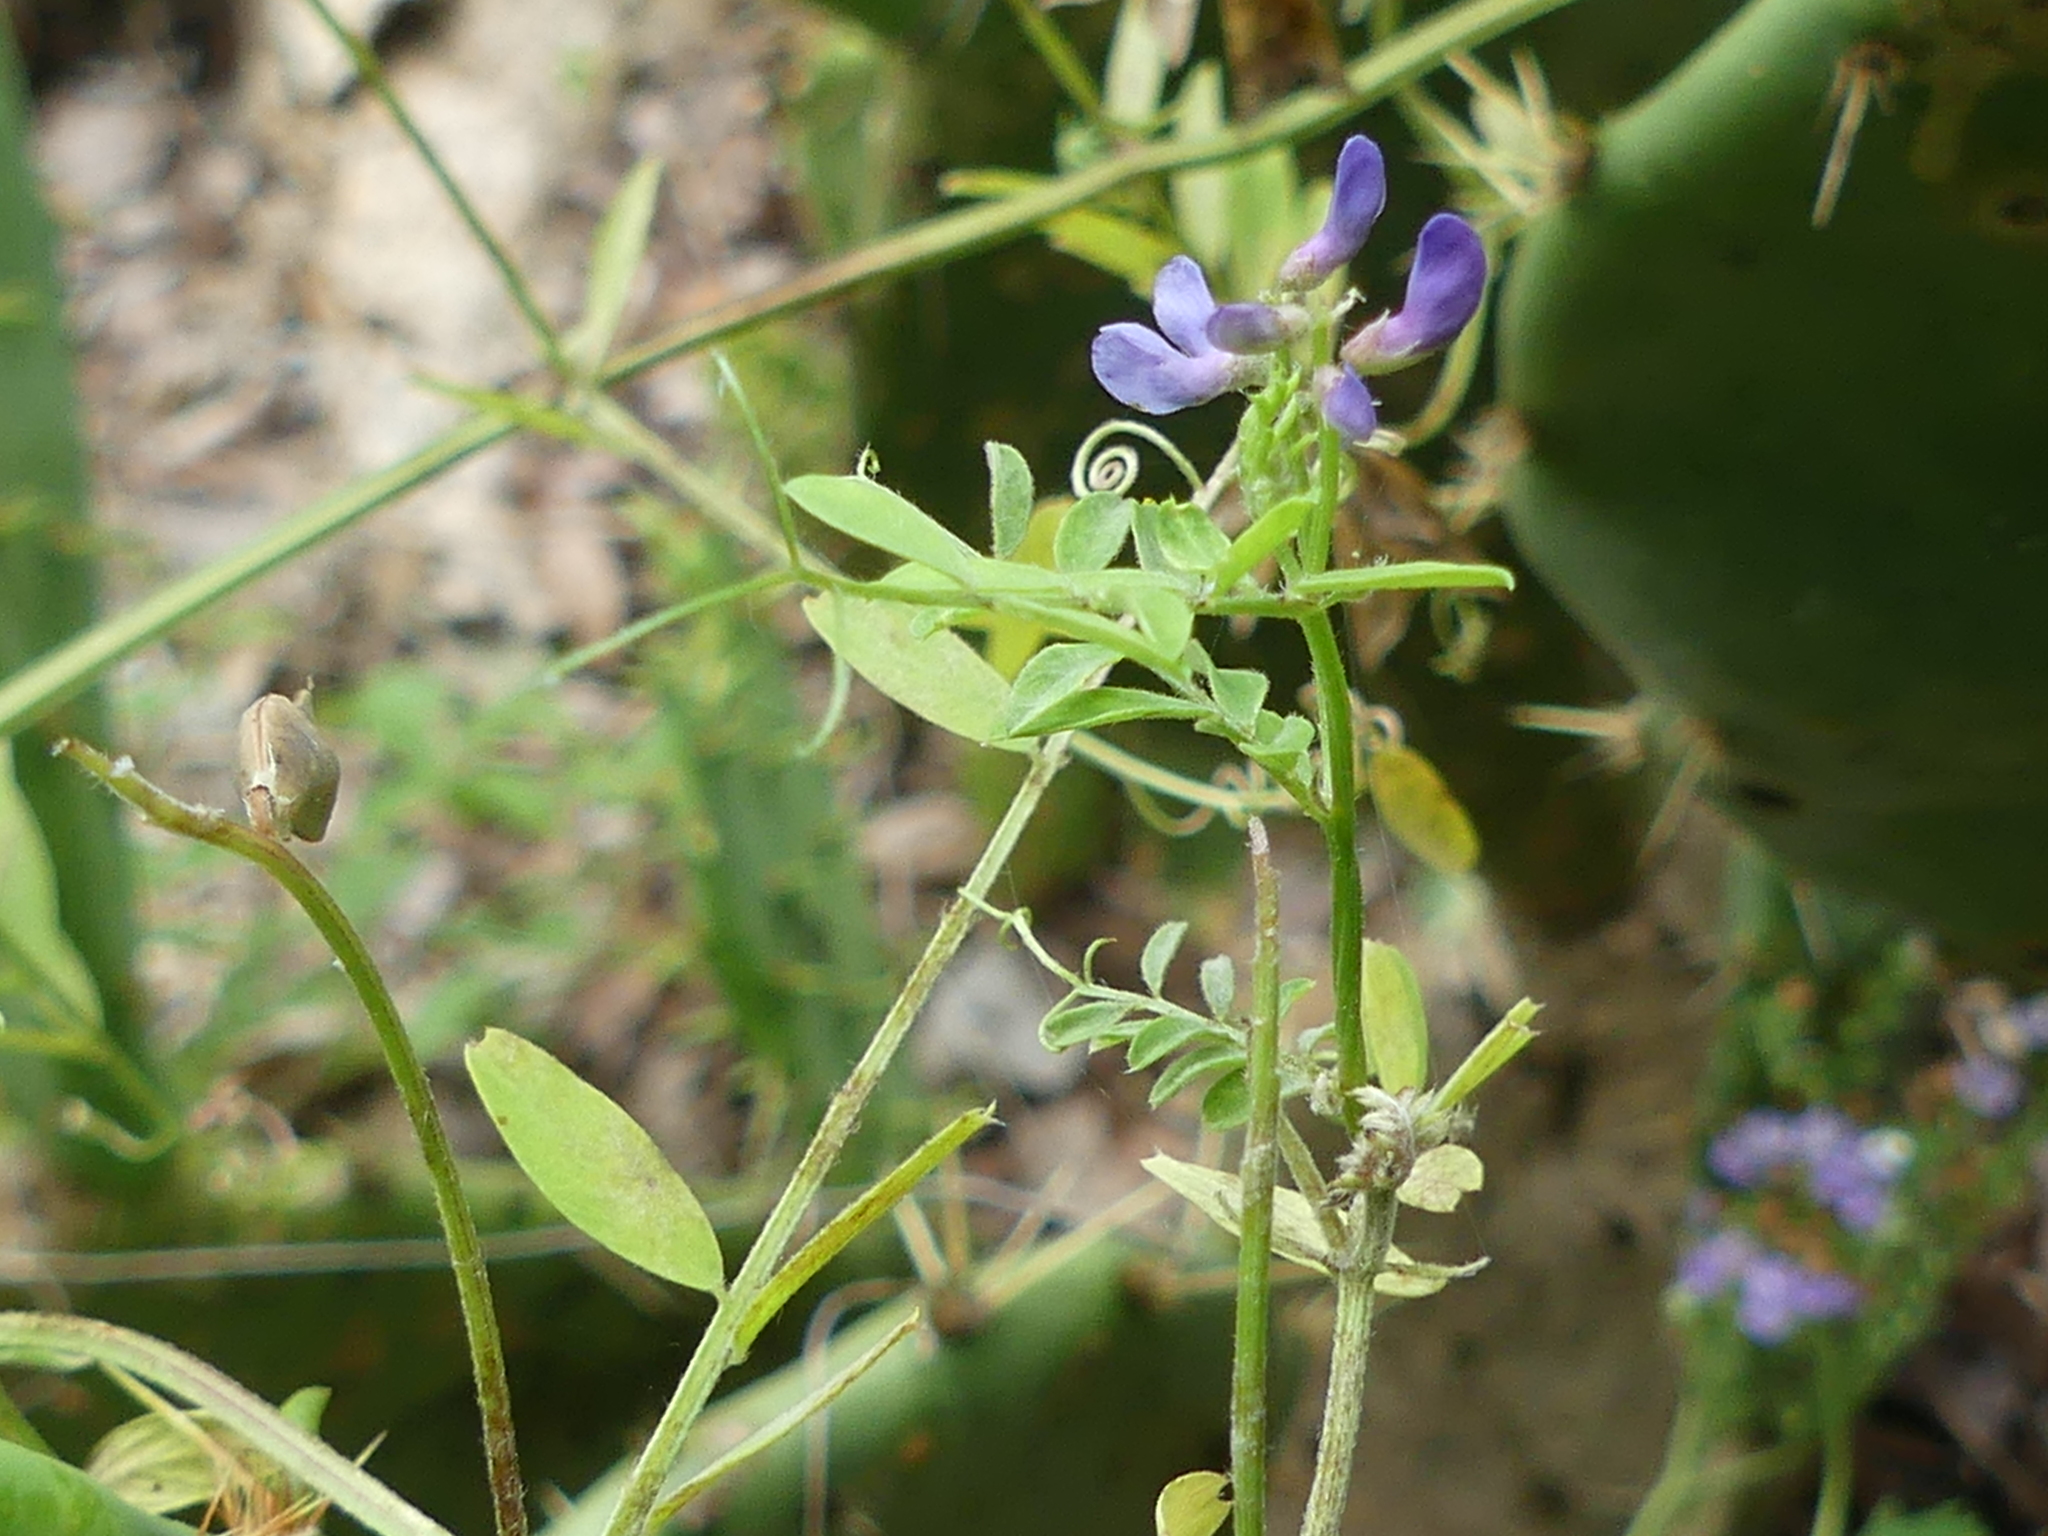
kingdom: Plantae
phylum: Tracheophyta
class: Magnoliopsida
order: Fabales
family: Fabaceae
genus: Vicia
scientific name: Vicia ludoviciana
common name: Louisiana vetch
